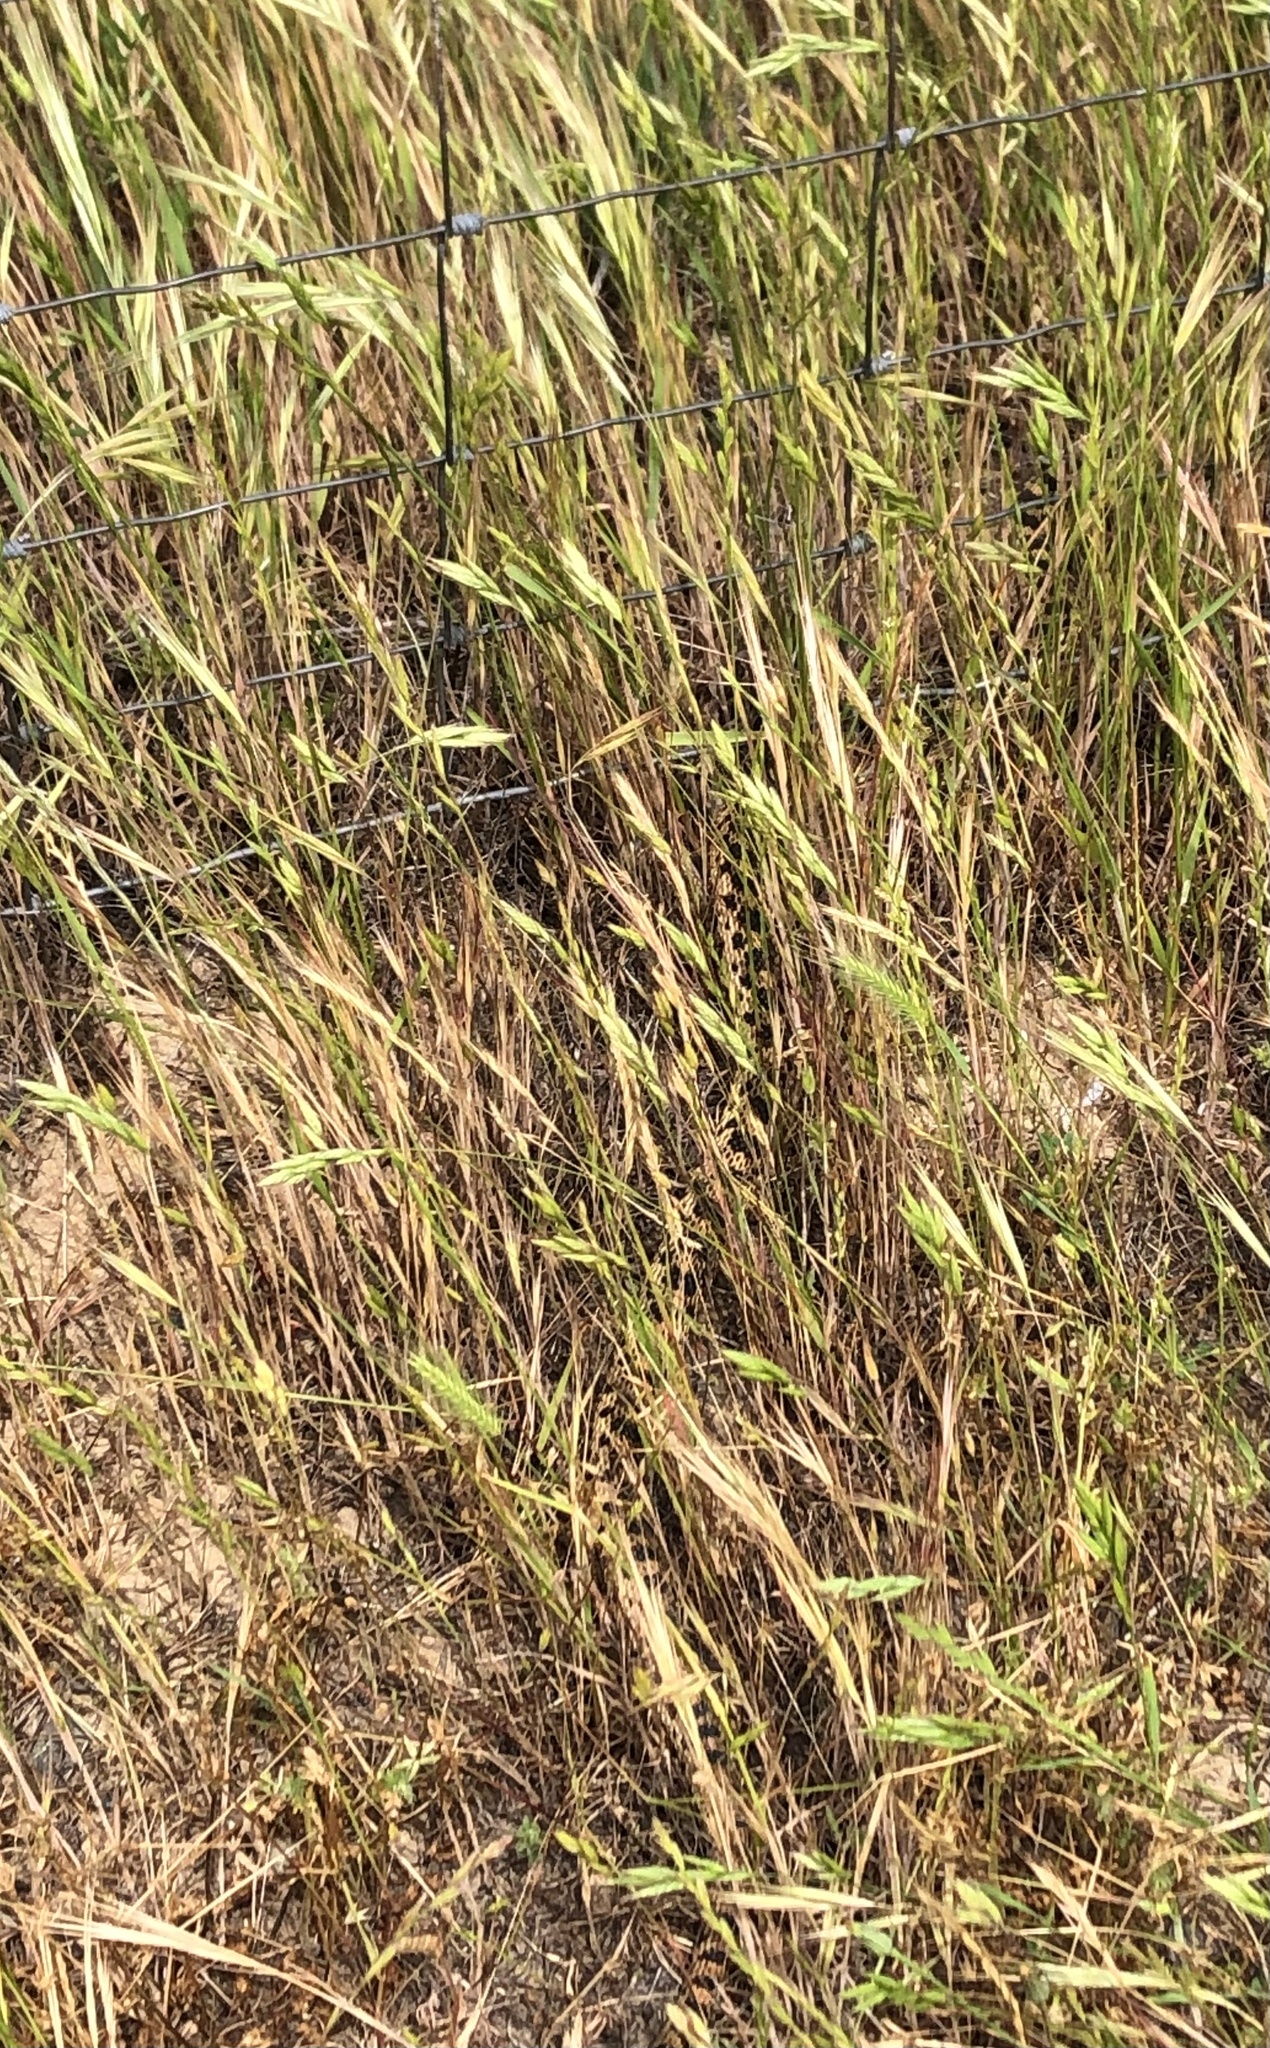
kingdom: Animalia
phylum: Chordata
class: Squamata
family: Colubridae
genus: Pituophis
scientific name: Pituophis catenifer
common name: Gopher snake
